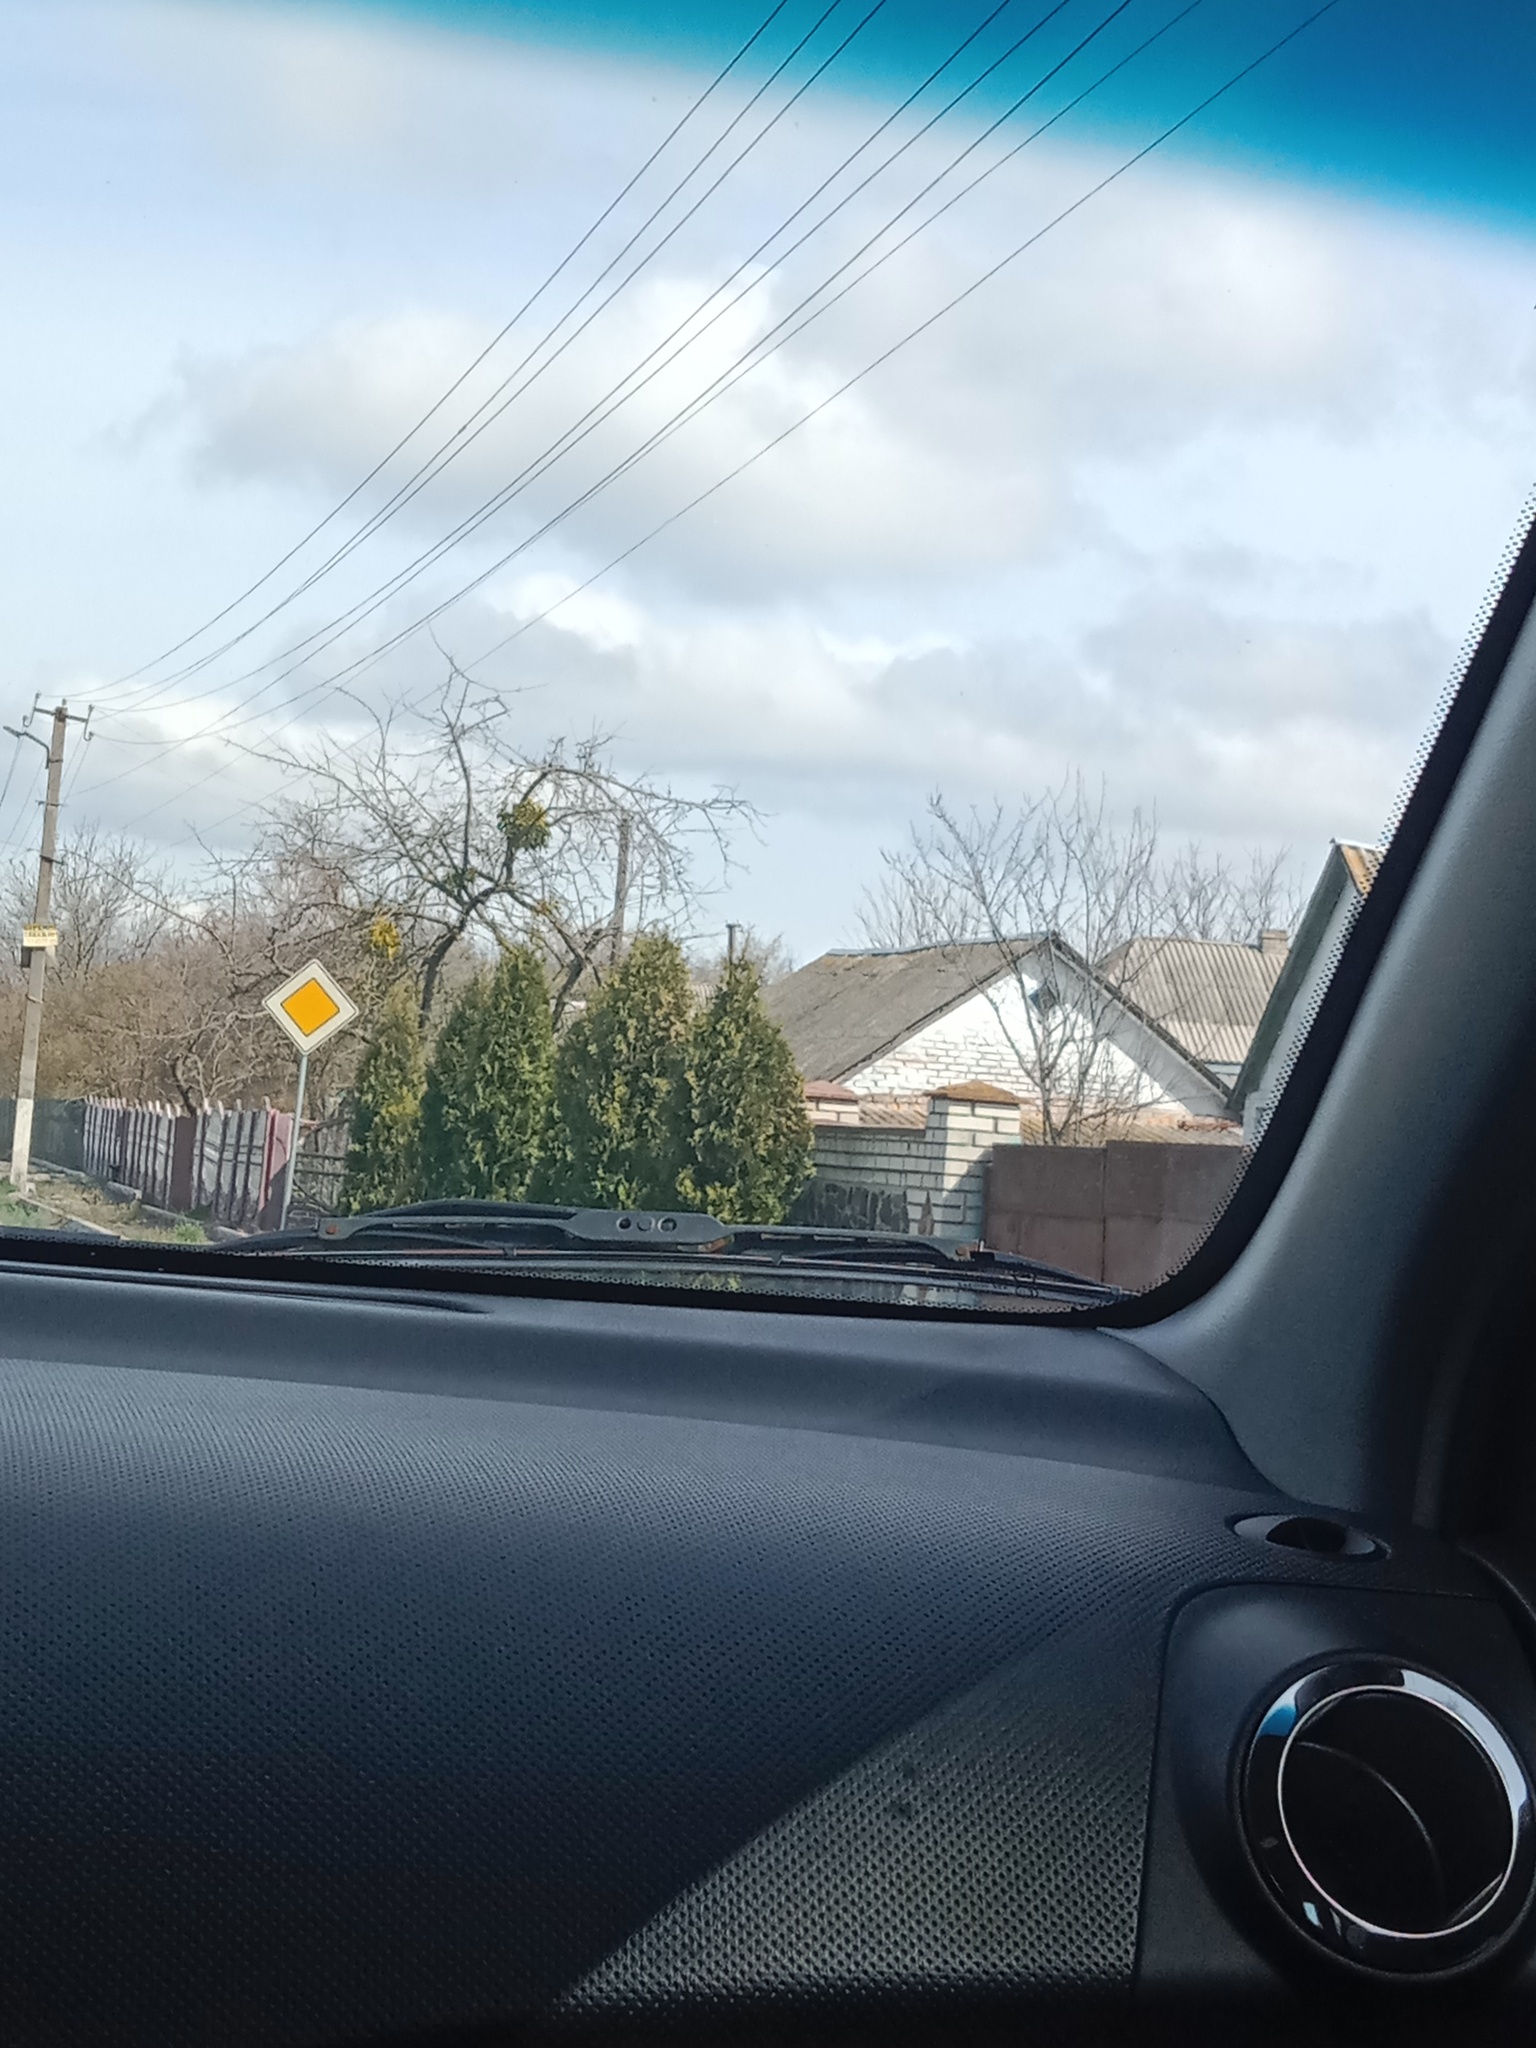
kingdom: Plantae
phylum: Tracheophyta
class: Magnoliopsida
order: Santalales
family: Viscaceae
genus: Viscum
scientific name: Viscum album
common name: Mistletoe
